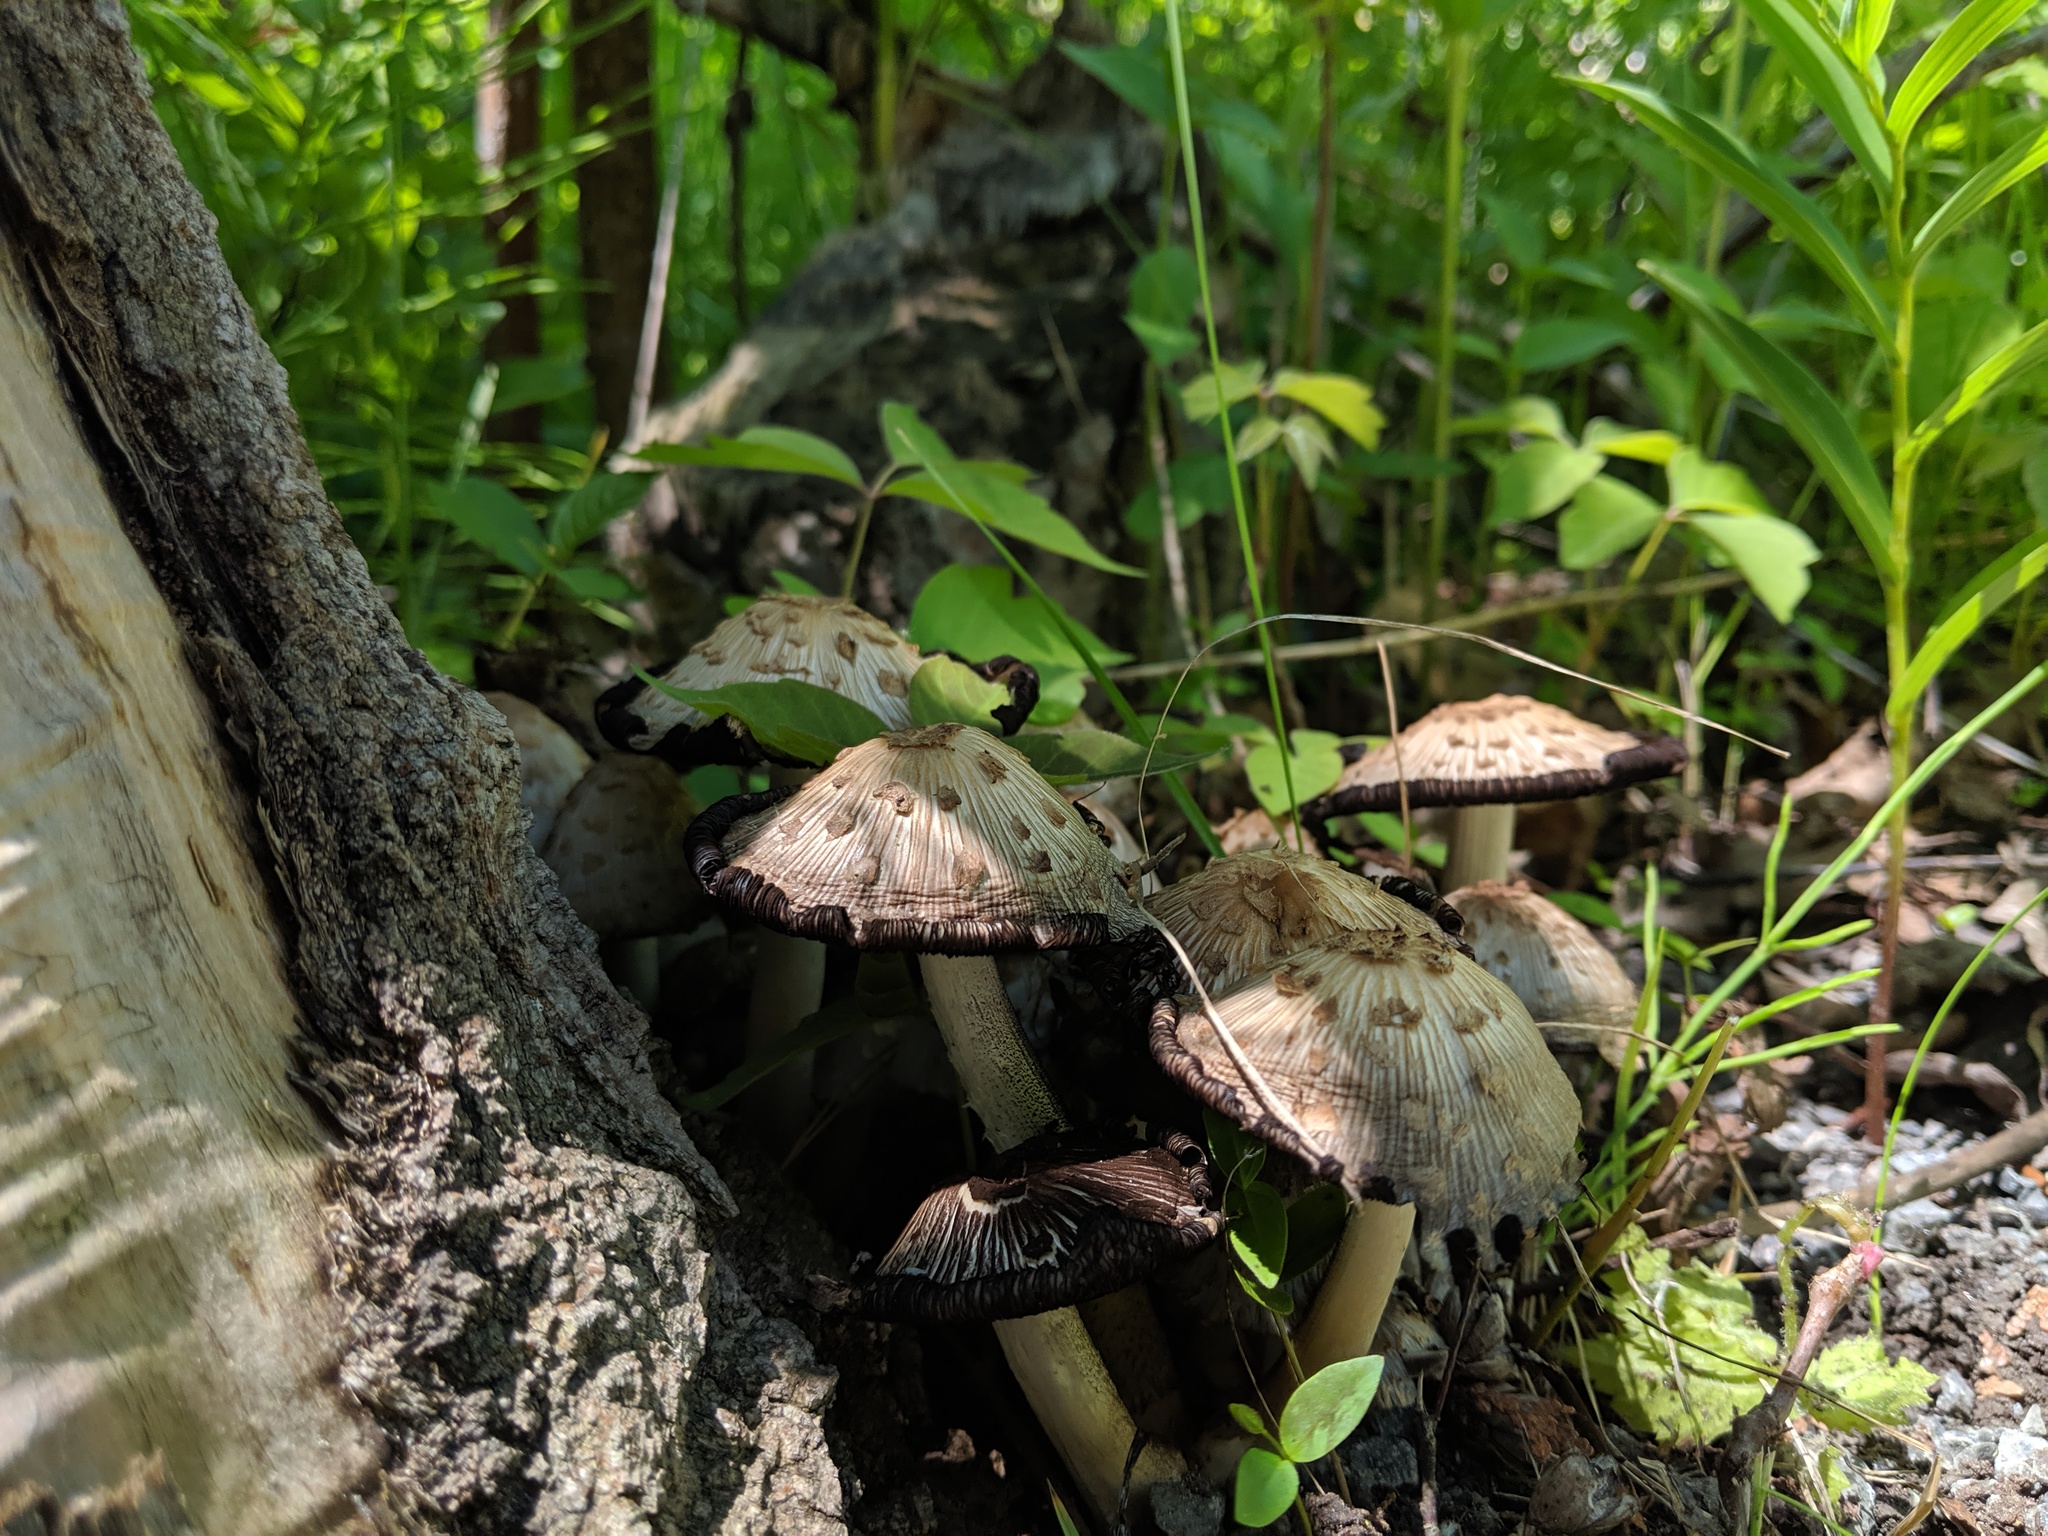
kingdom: Fungi
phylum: Basidiomycota
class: Agaricomycetes
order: Agaricales
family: Psathyrellaceae
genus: Coprinopsis
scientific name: Coprinopsis variegata
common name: Scaly ink cap
